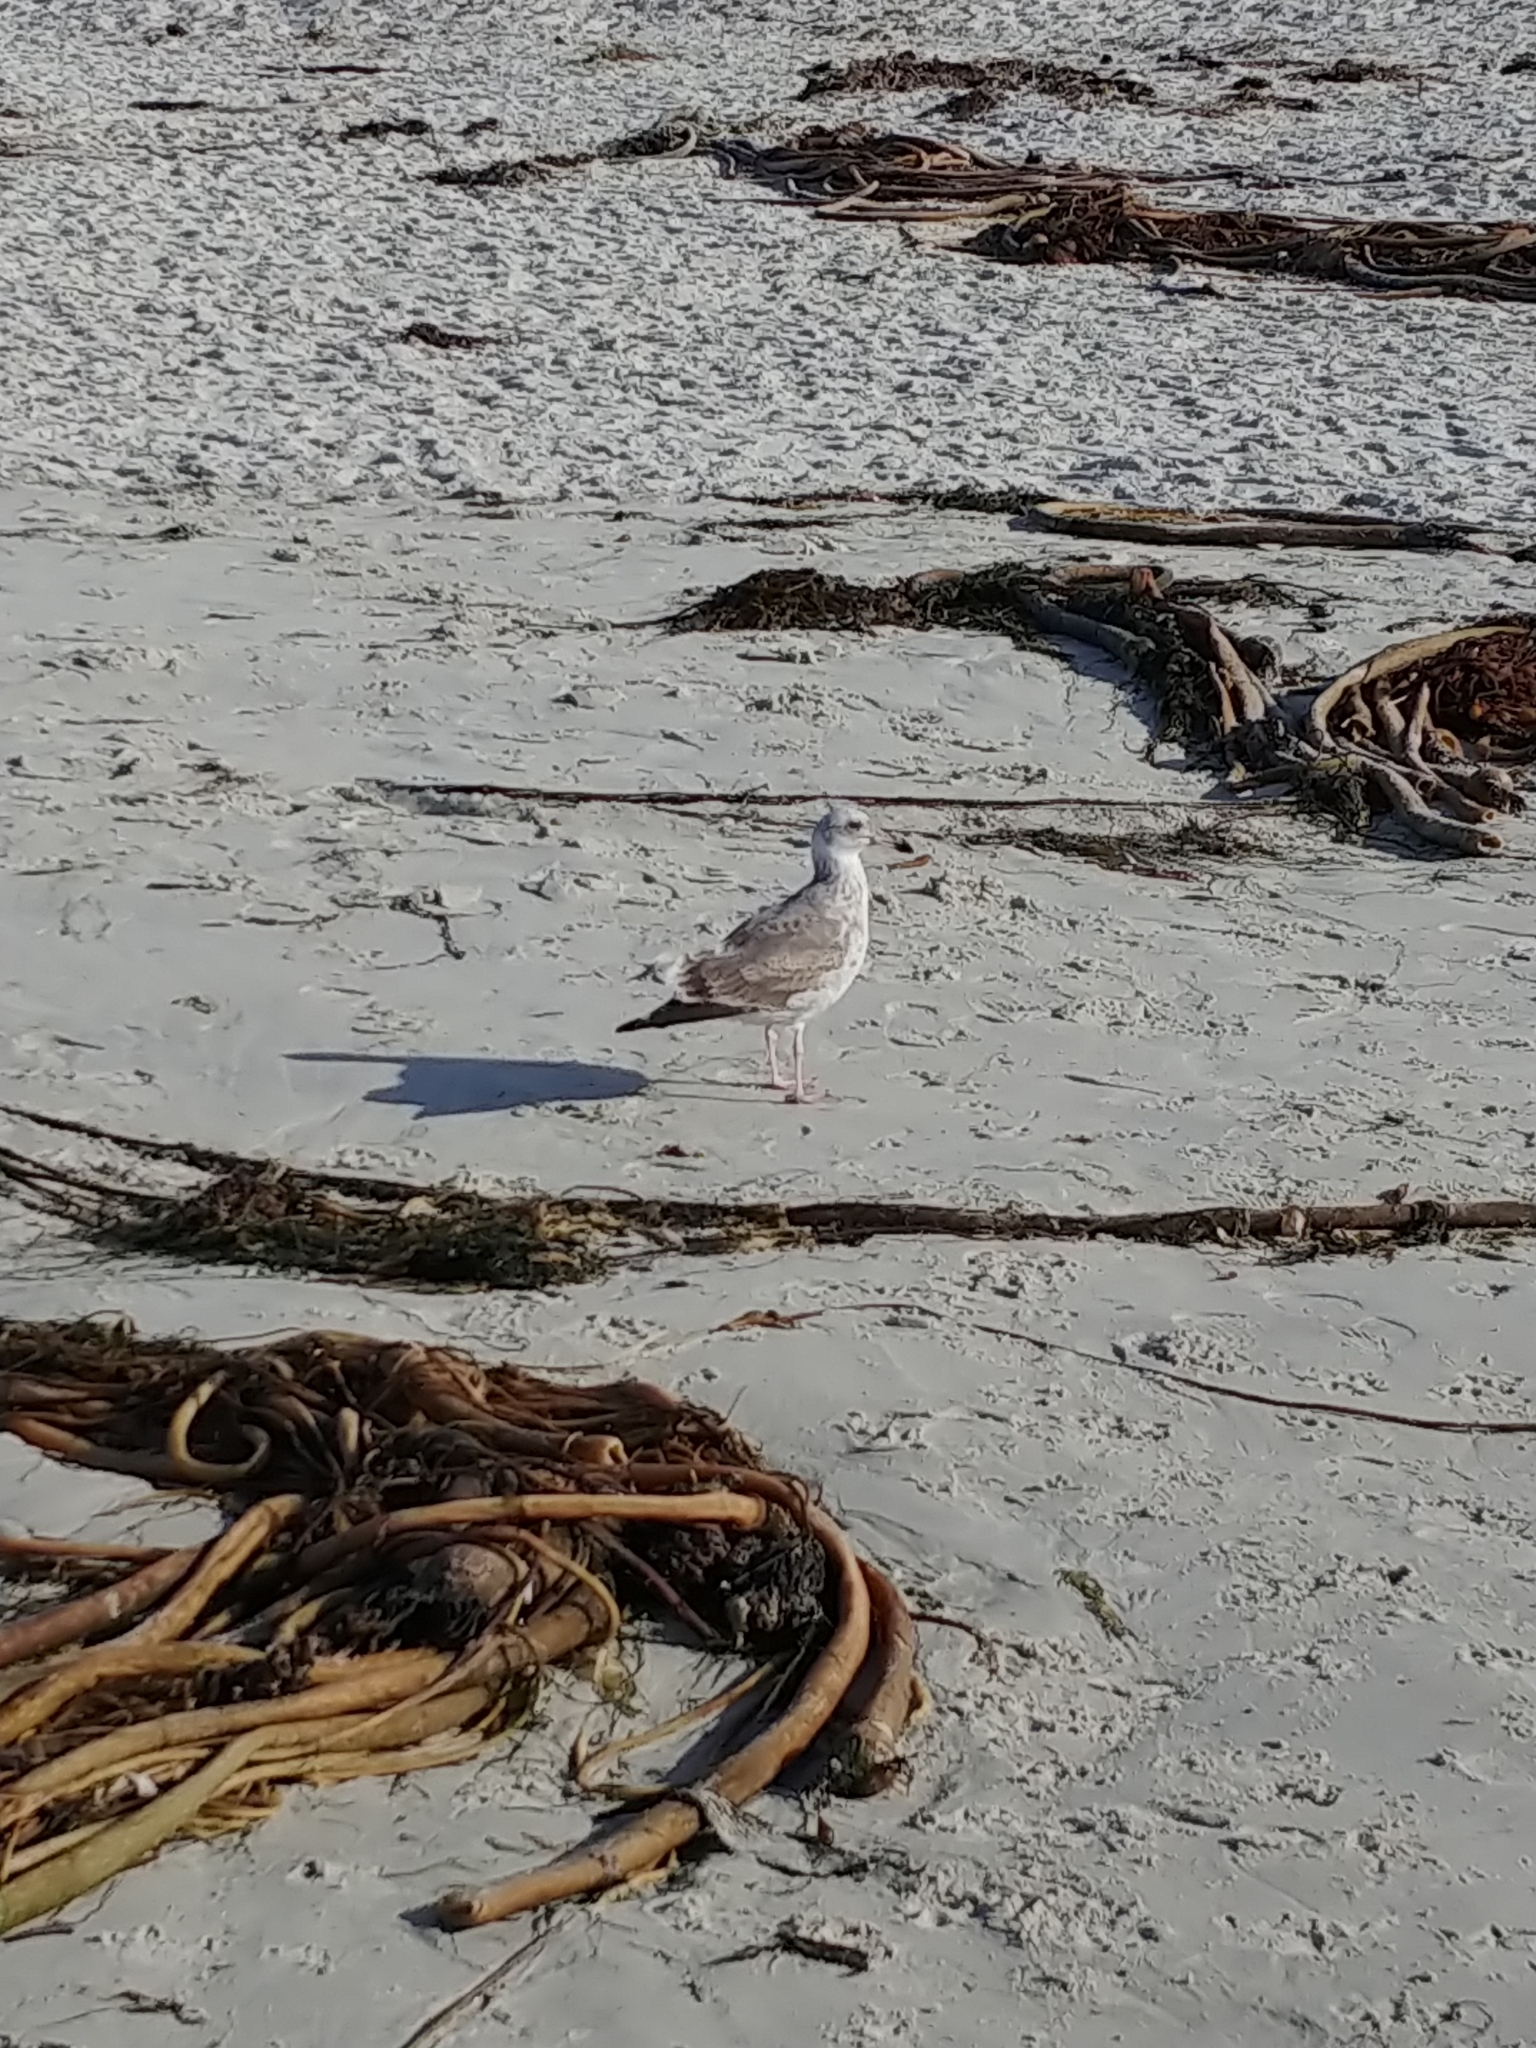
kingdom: Animalia
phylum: Chordata
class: Aves
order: Charadriiformes
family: Laridae
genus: Larus
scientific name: Larus californicus
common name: California gull
